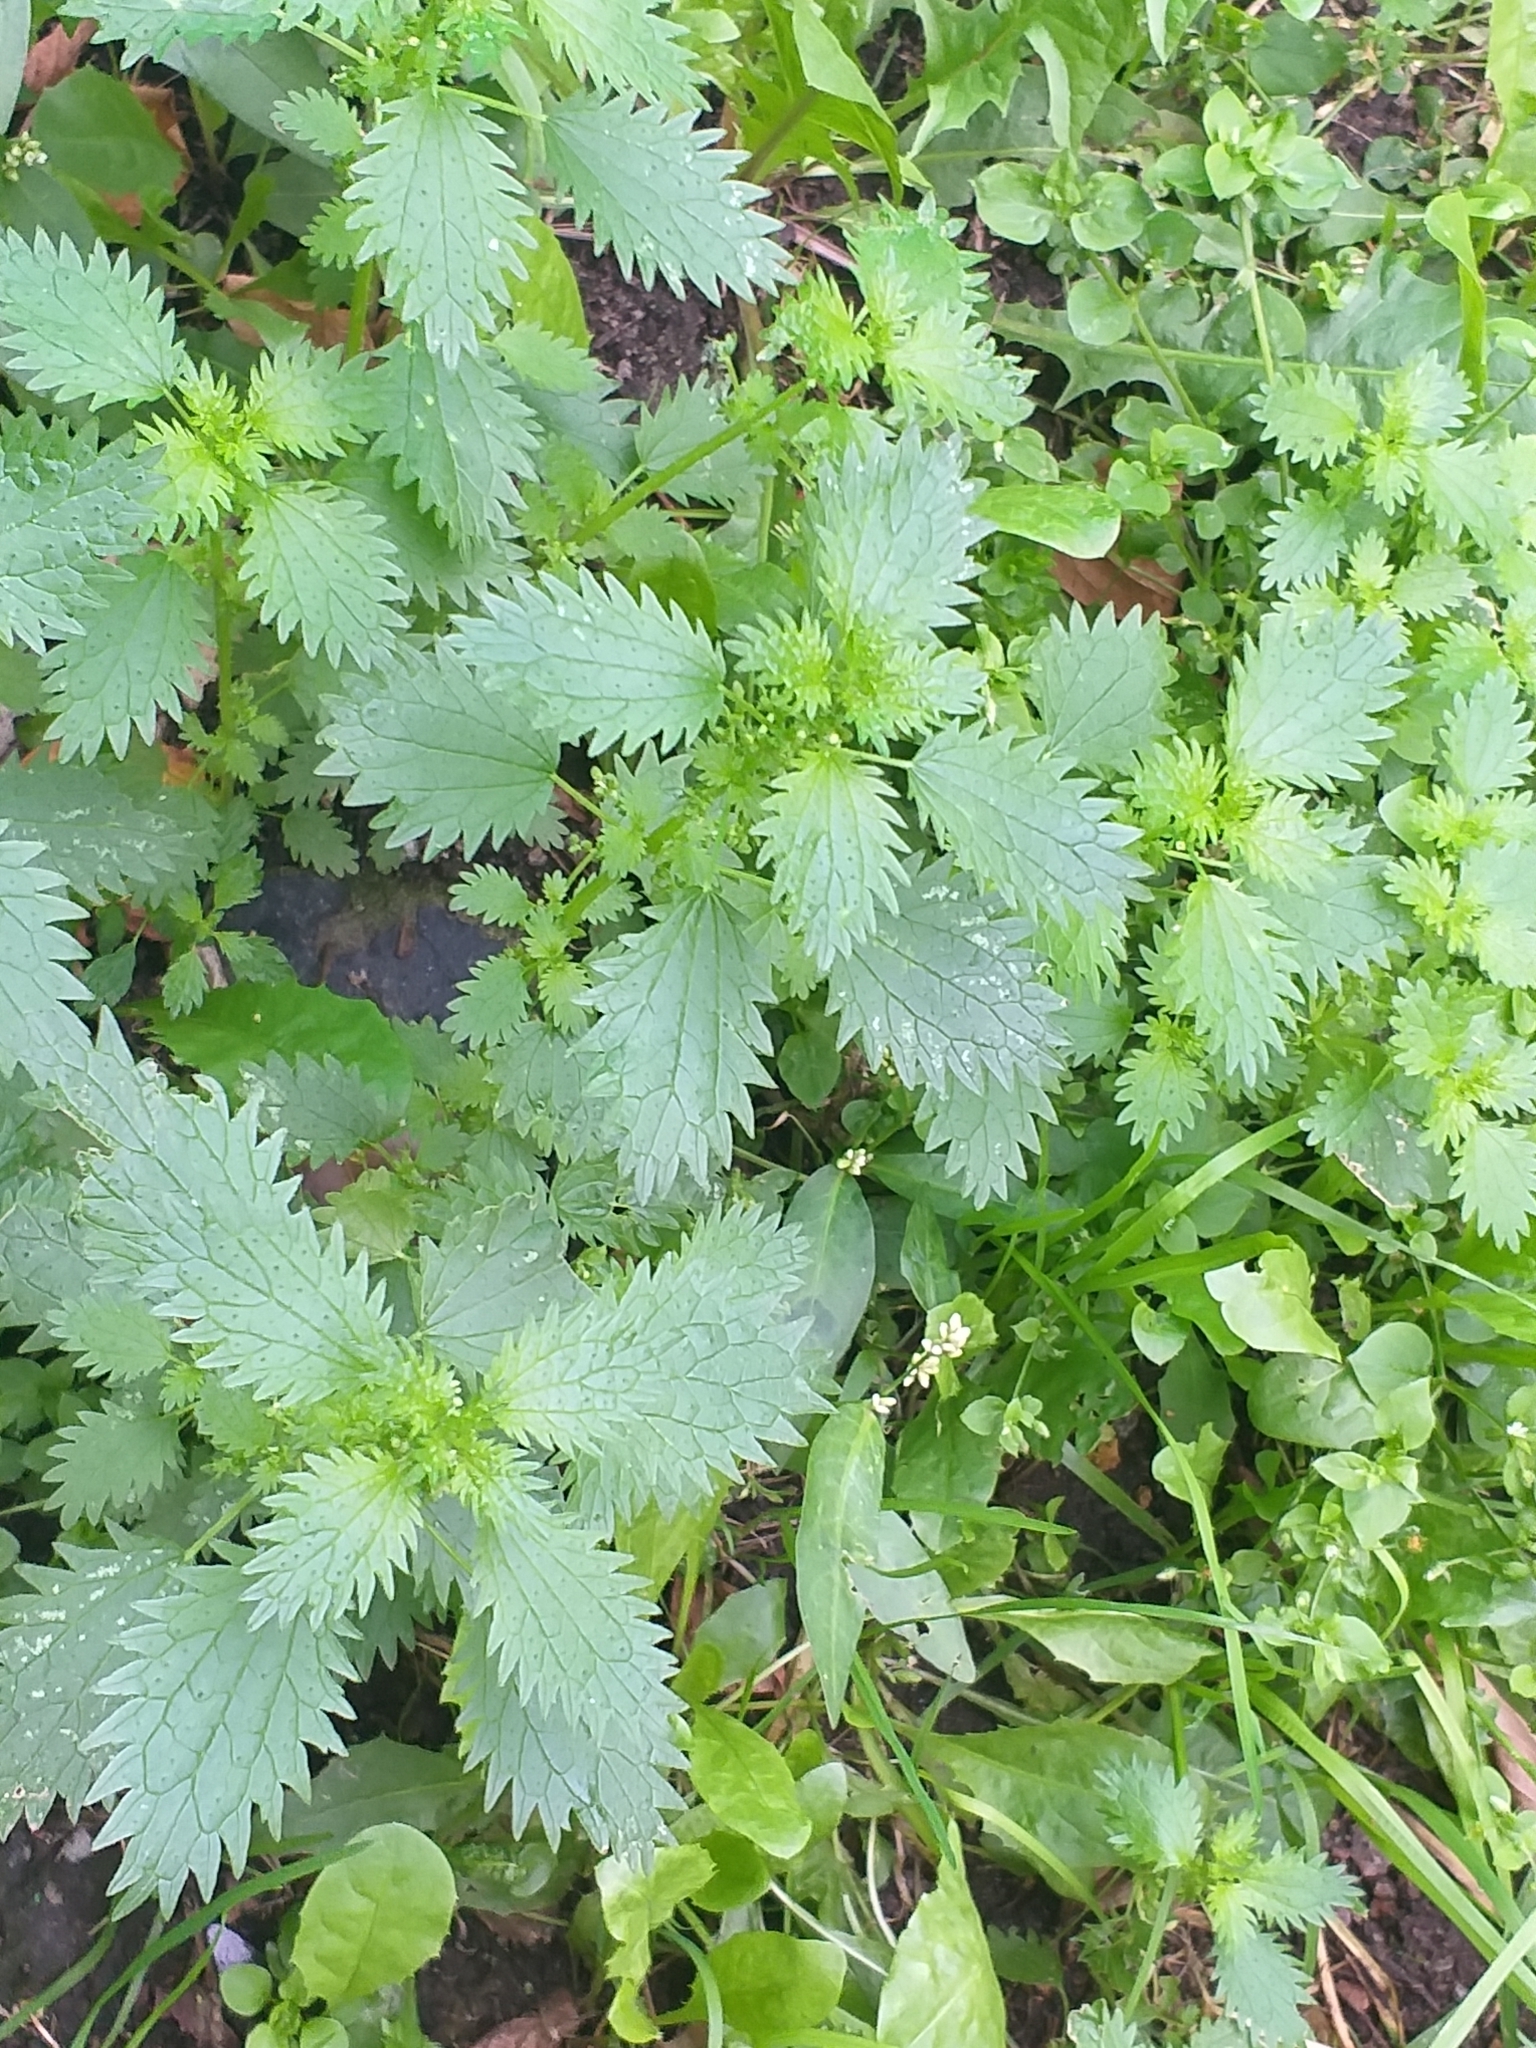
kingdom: Plantae
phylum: Tracheophyta
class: Magnoliopsida
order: Rosales
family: Urticaceae
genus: Urtica
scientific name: Urtica urens
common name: Dwarf nettle
